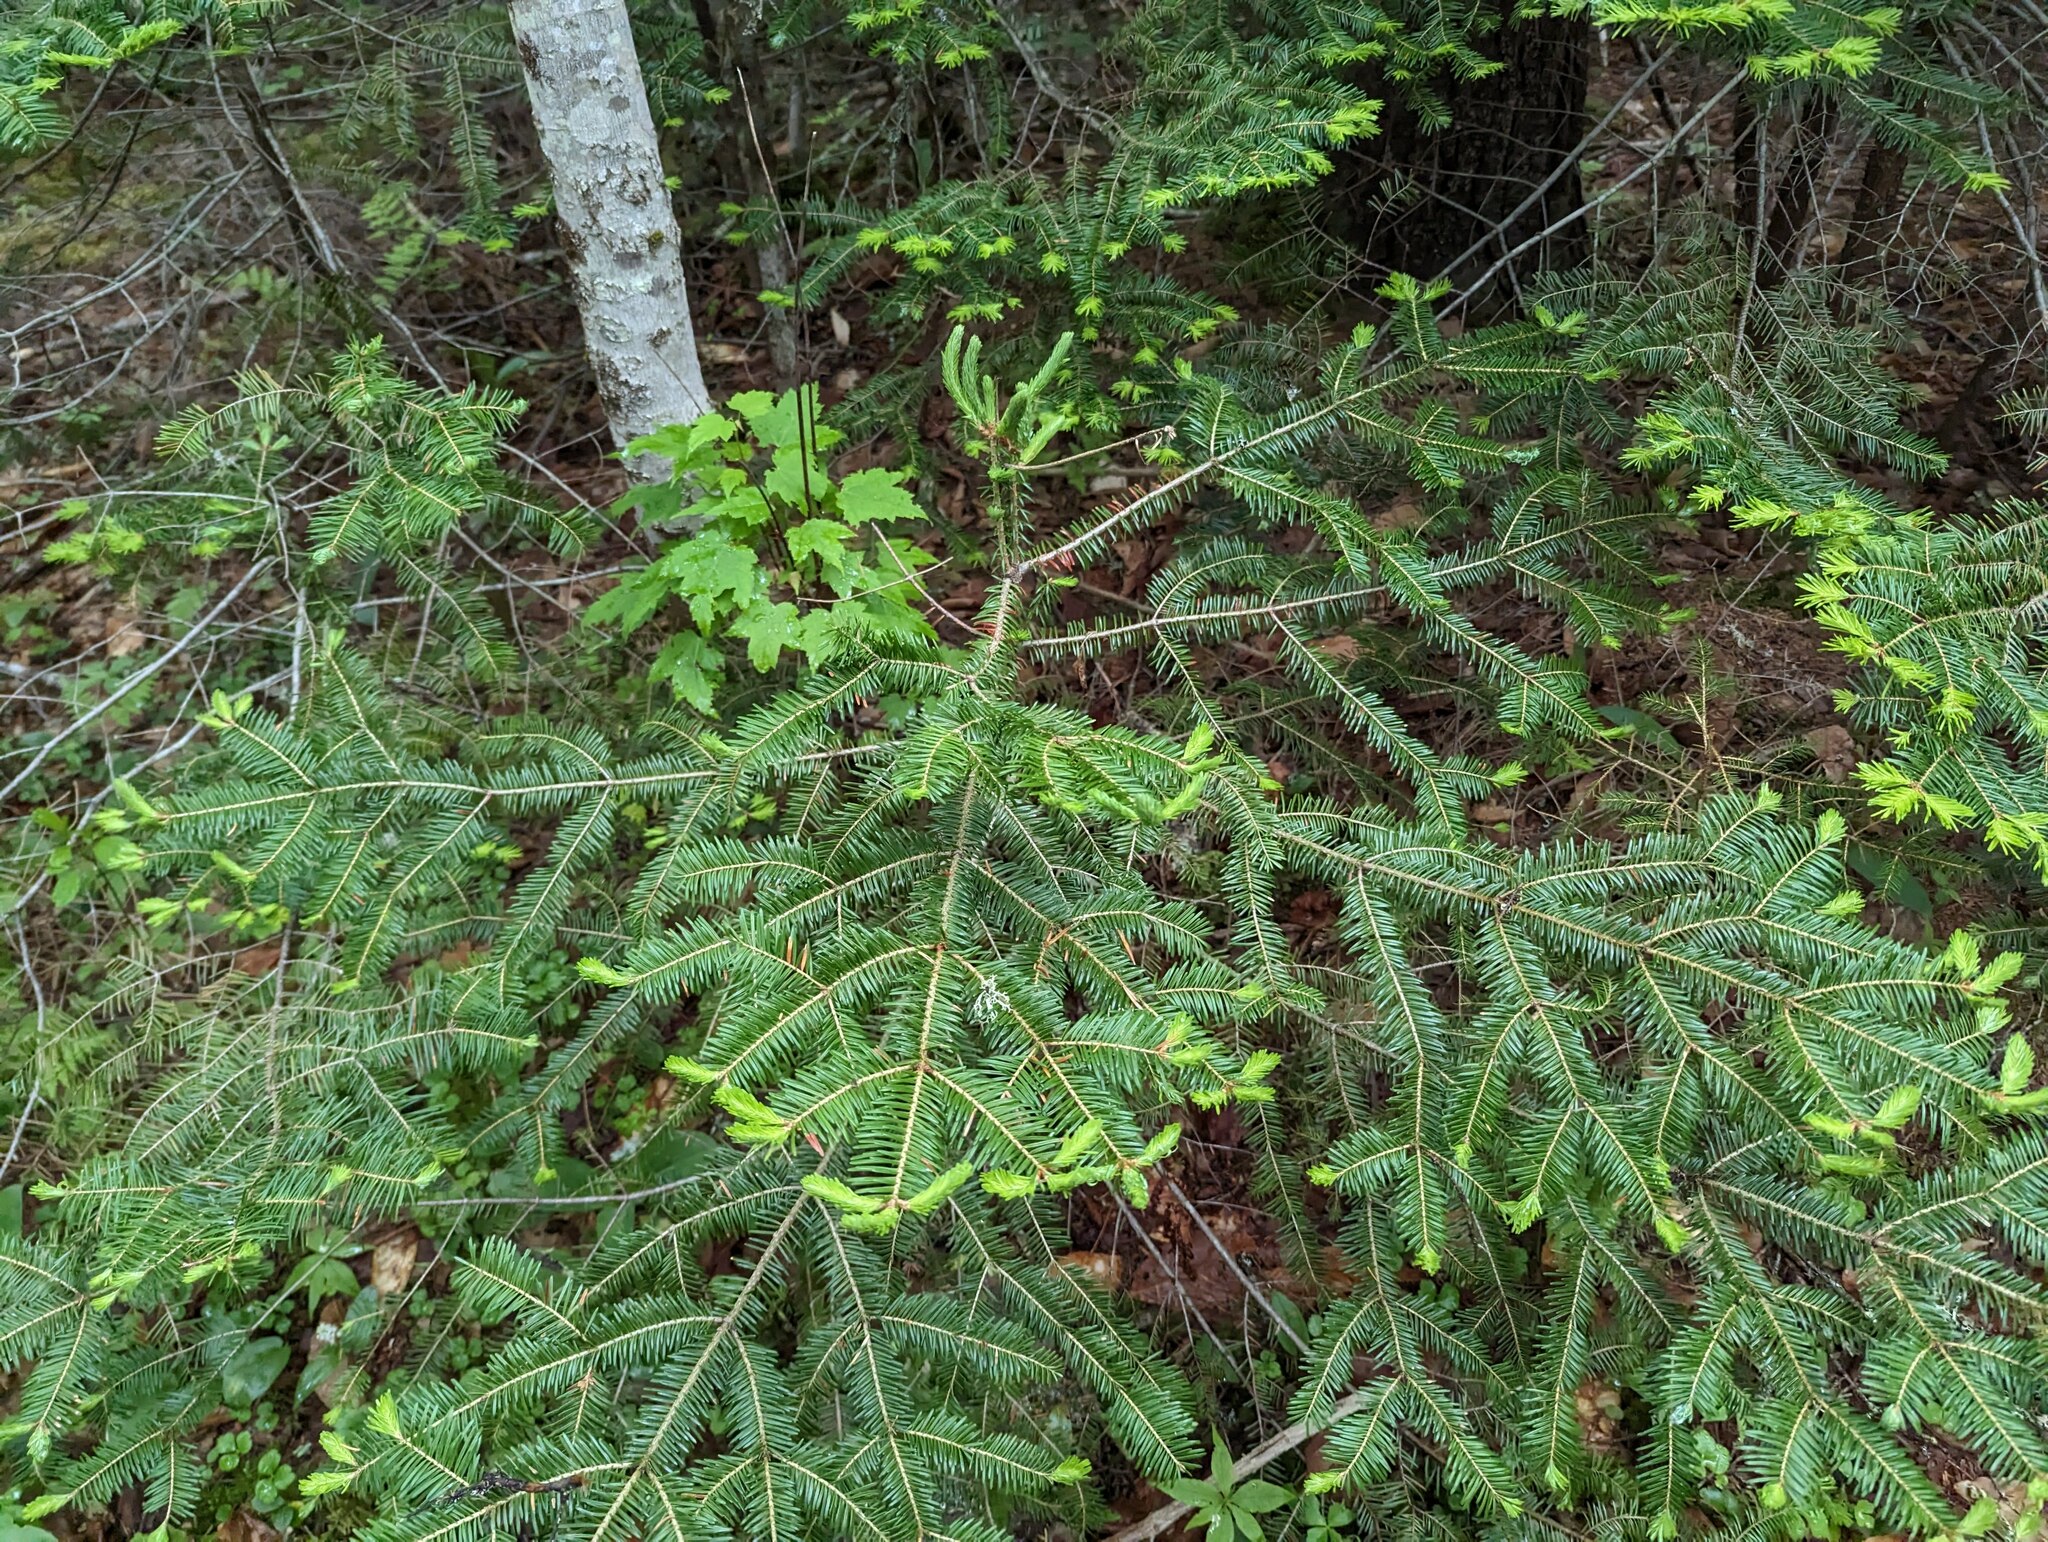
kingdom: Plantae
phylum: Tracheophyta
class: Pinopsida
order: Pinales
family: Pinaceae
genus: Abies
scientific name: Abies balsamea
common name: Balsam fir
